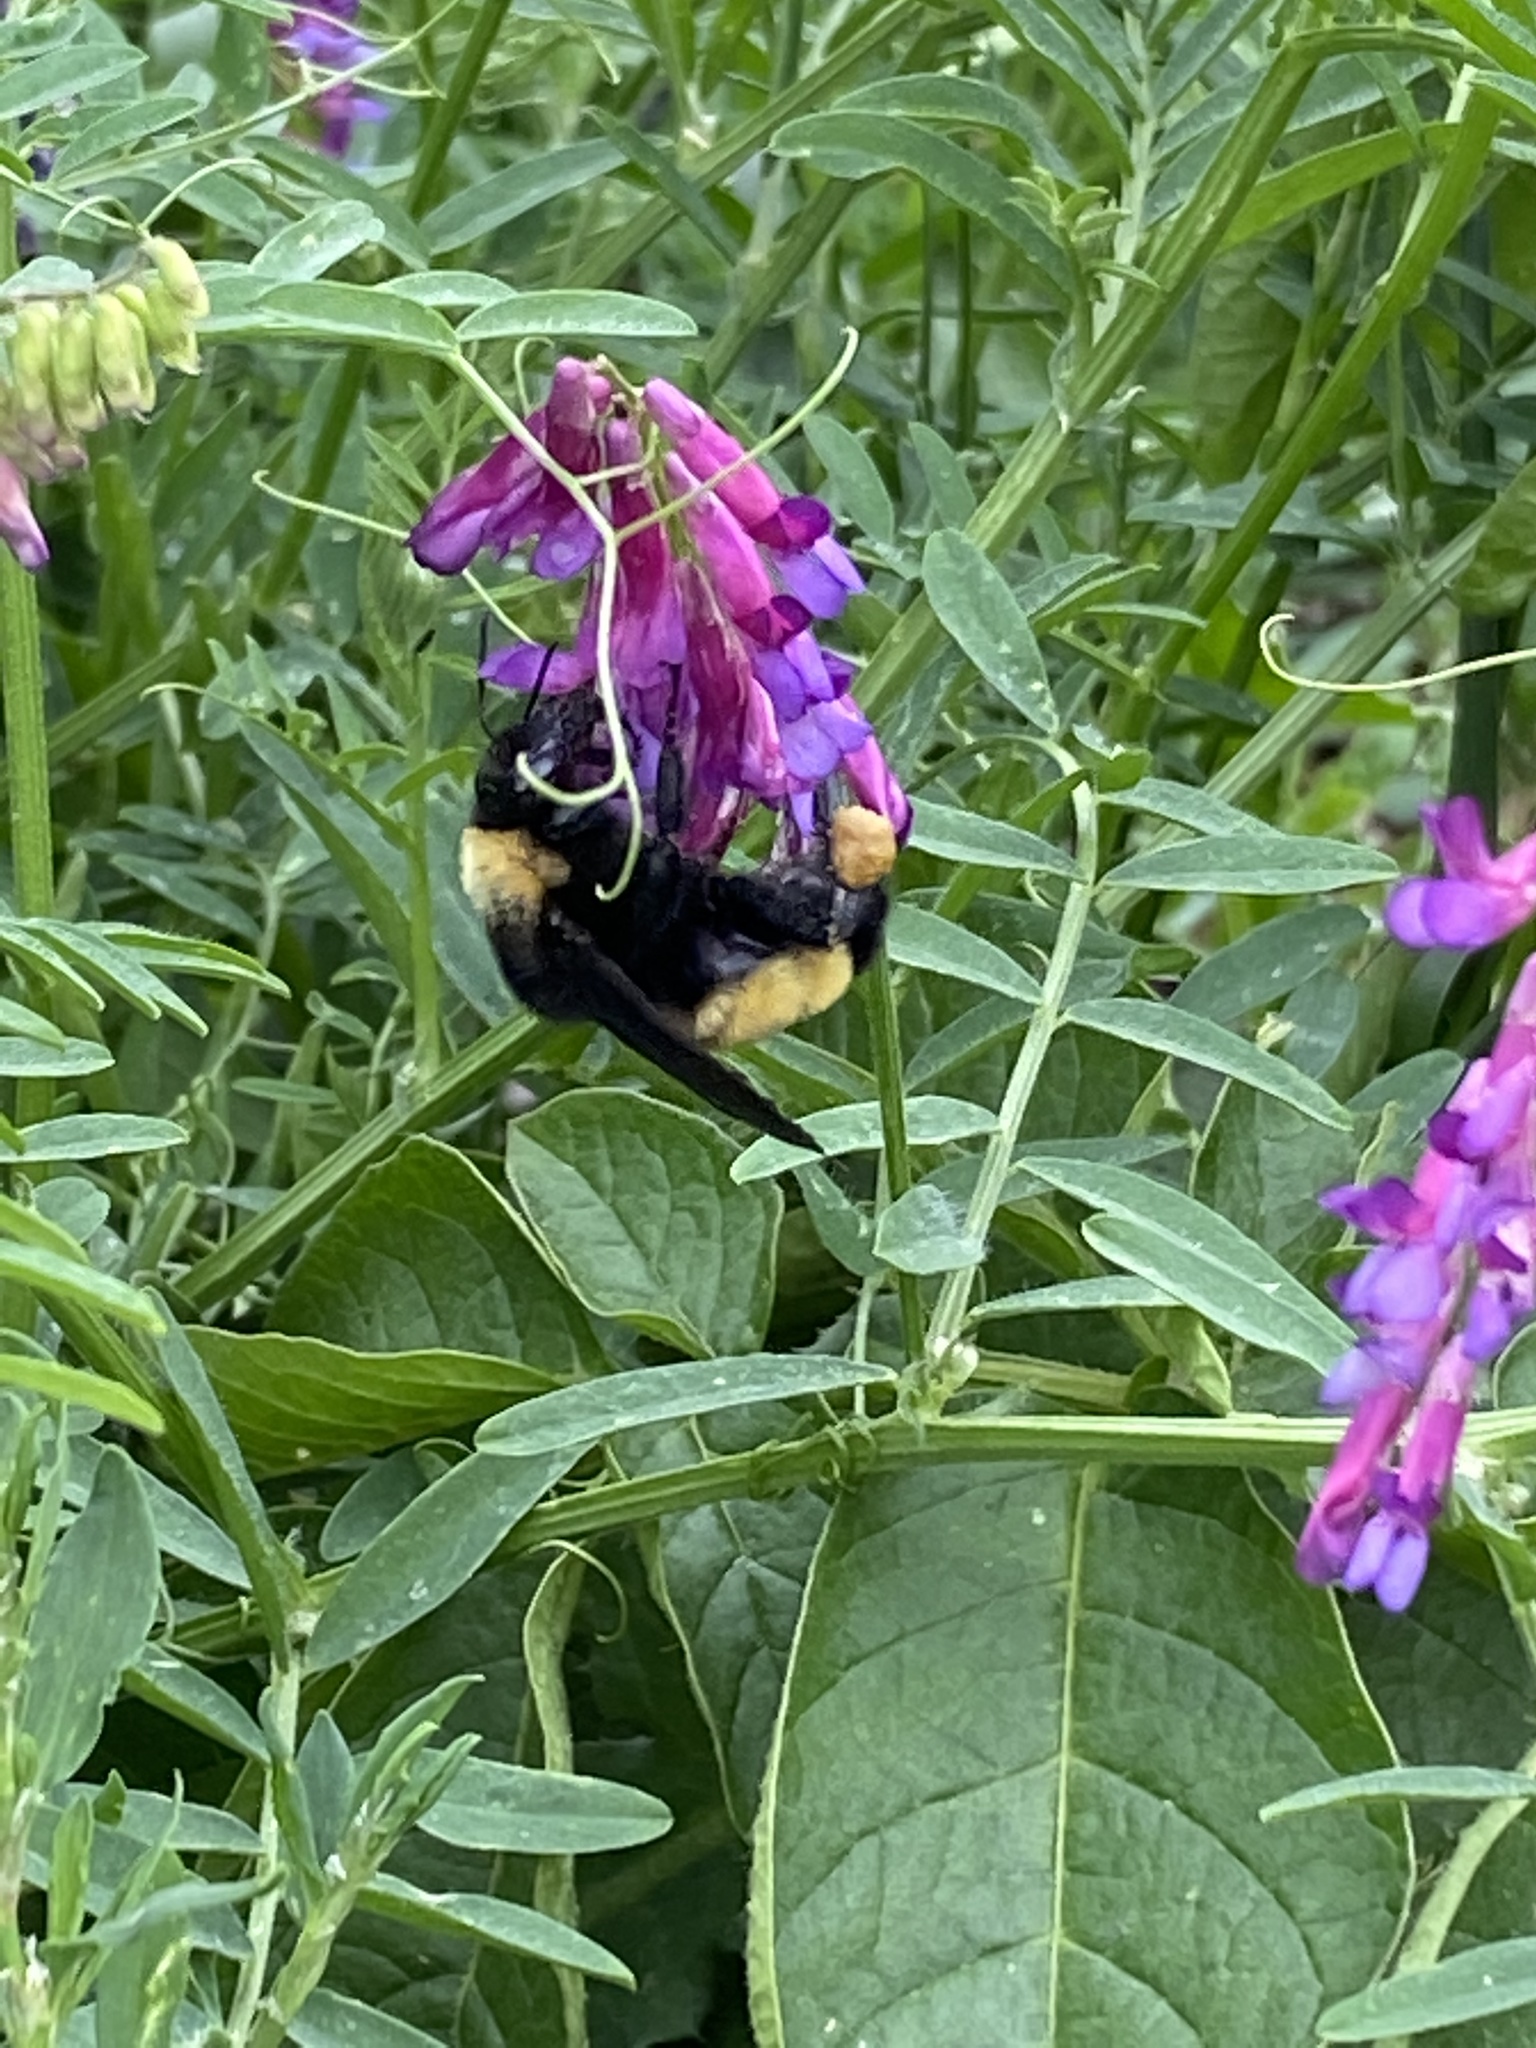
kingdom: Animalia
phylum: Arthropoda
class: Insecta
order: Hymenoptera
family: Apidae
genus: Bombus
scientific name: Bombus pensylvanicus
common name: Bumble bee
